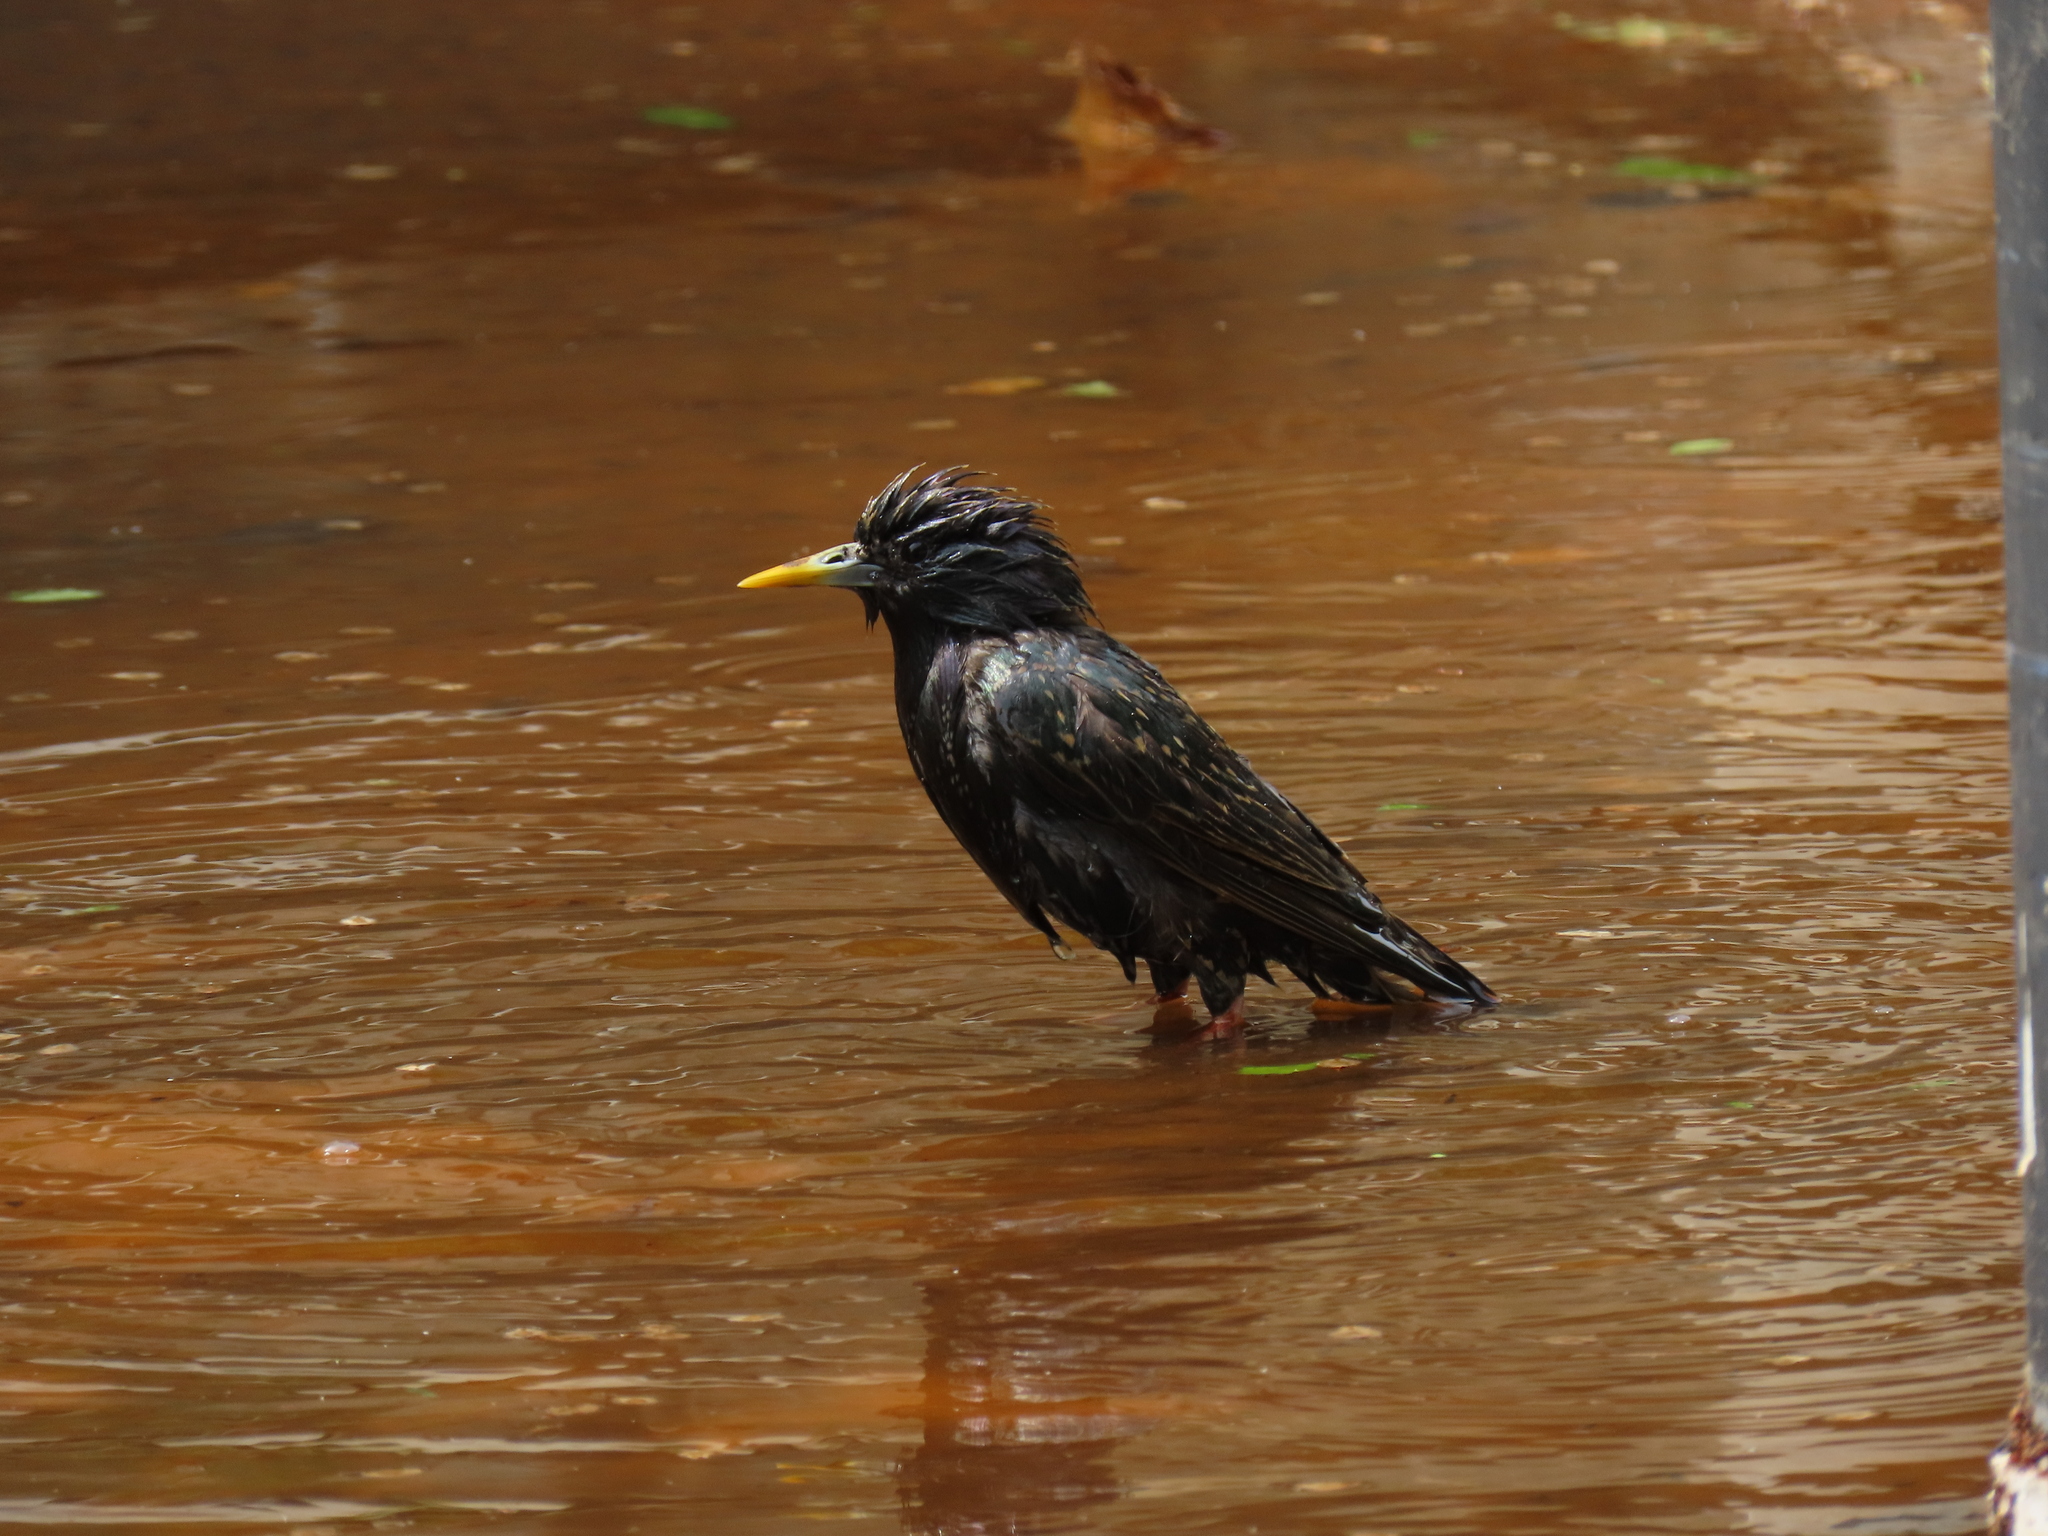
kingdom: Animalia
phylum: Chordata
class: Aves
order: Passeriformes
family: Sturnidae
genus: Sturnus
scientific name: Sturnus vulgaris
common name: Common starling
